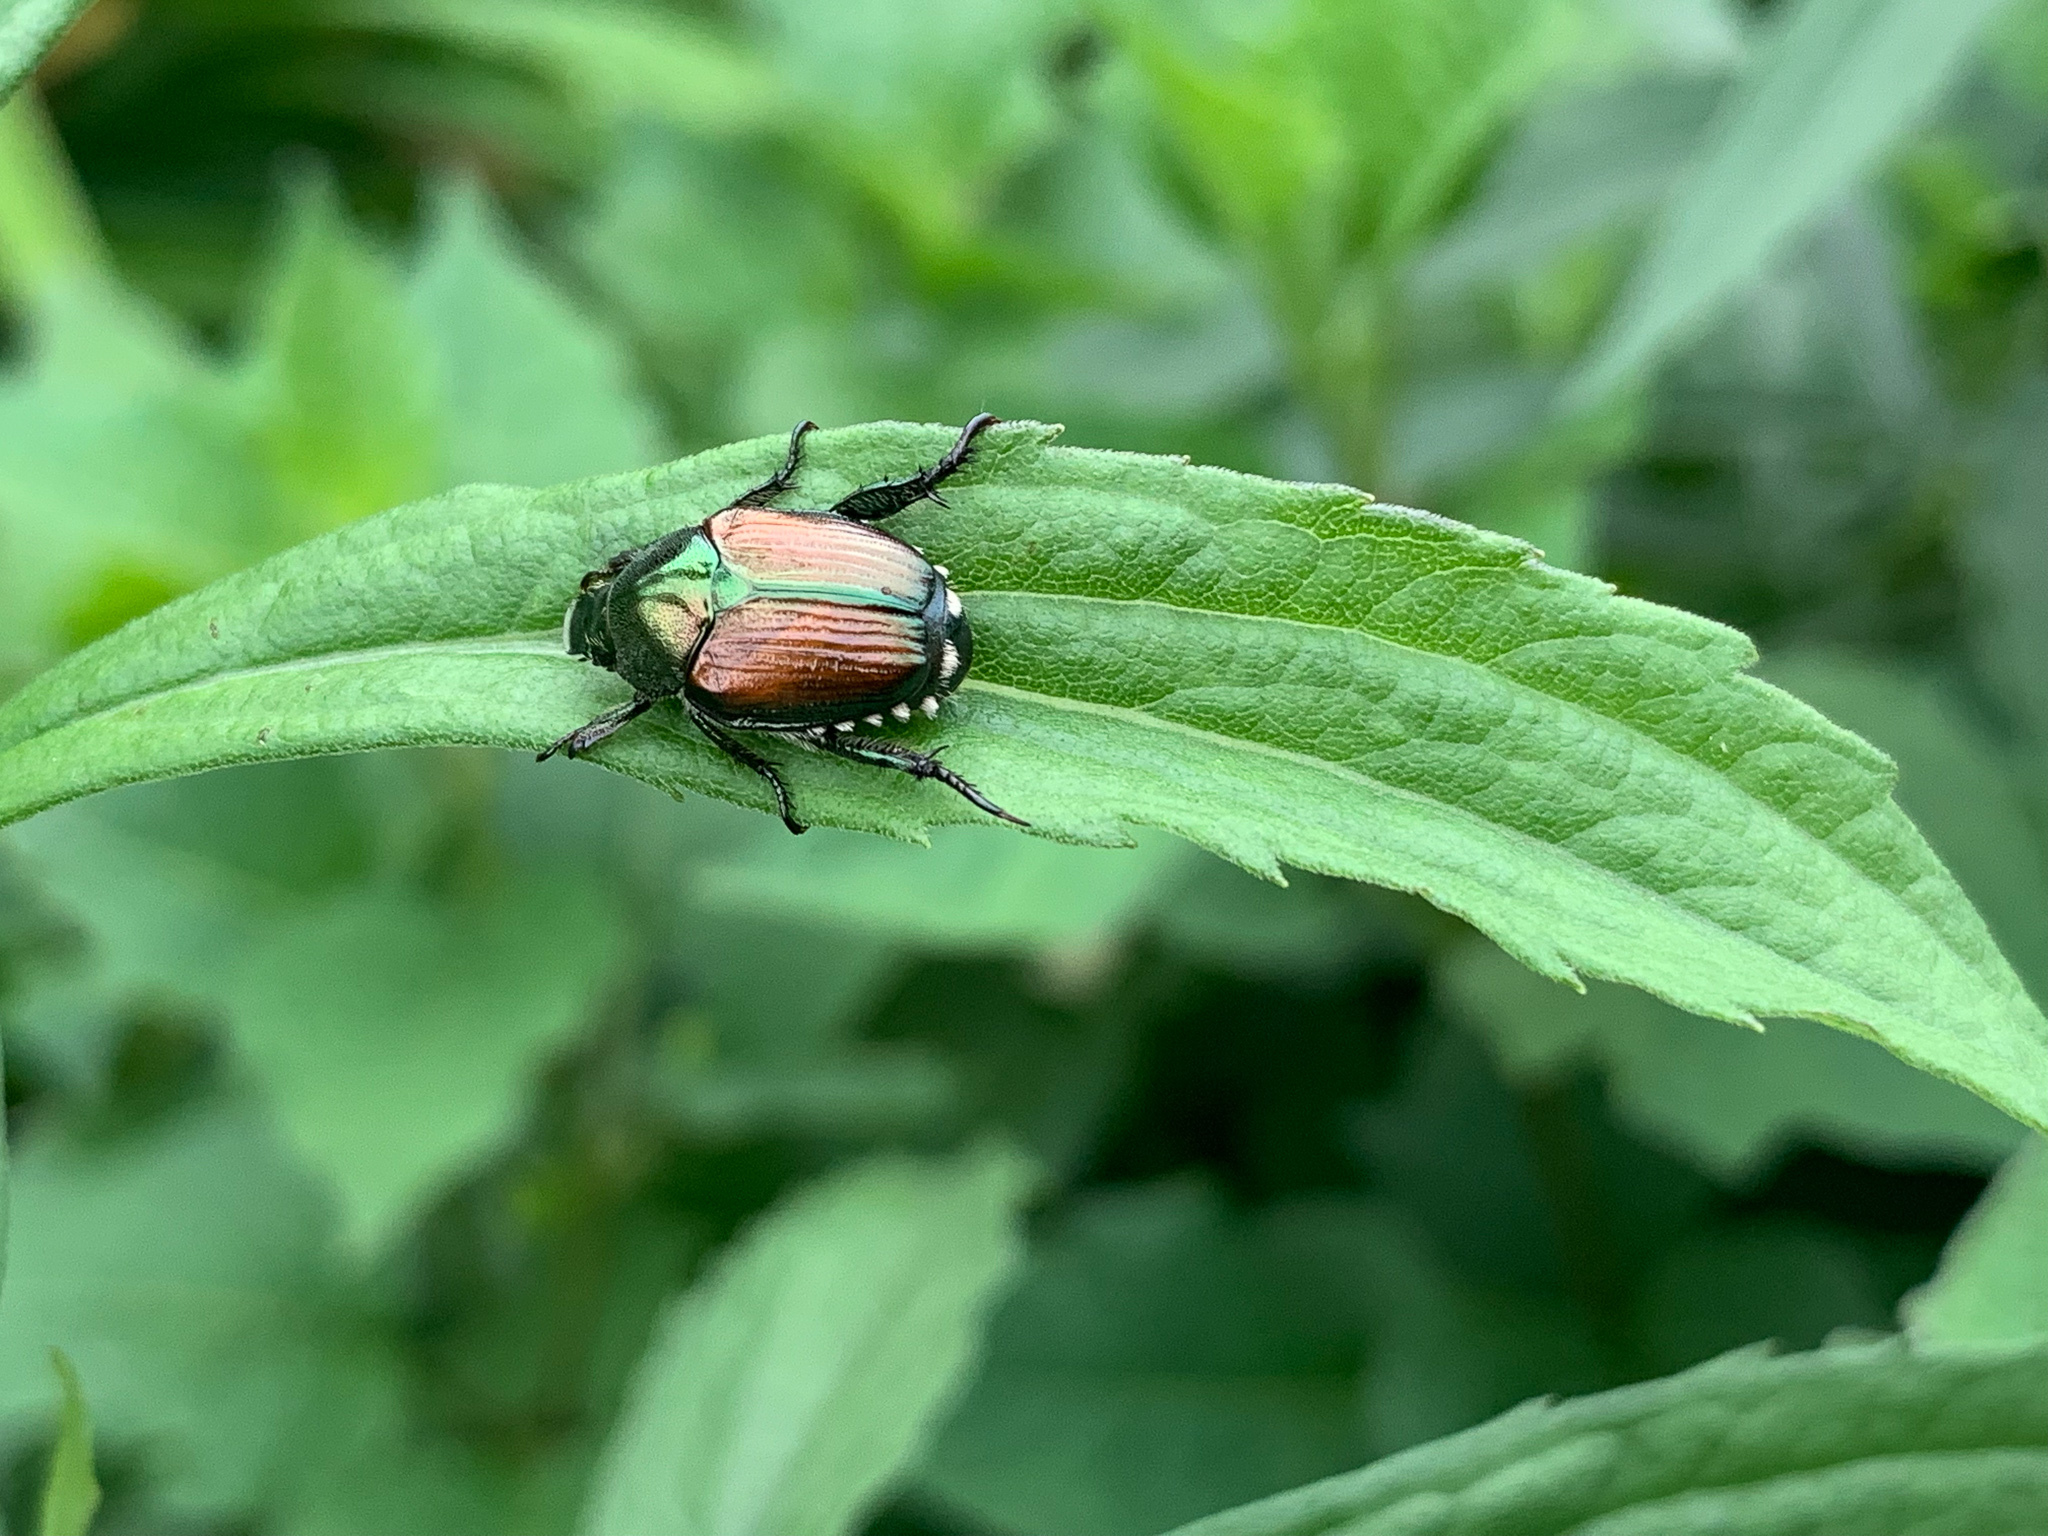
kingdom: Animalia
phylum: Arthropoda
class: Insecta
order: Coleoptera
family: Scarabaeidae
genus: Popillia
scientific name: Popillia japonica
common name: Japanese beetle
